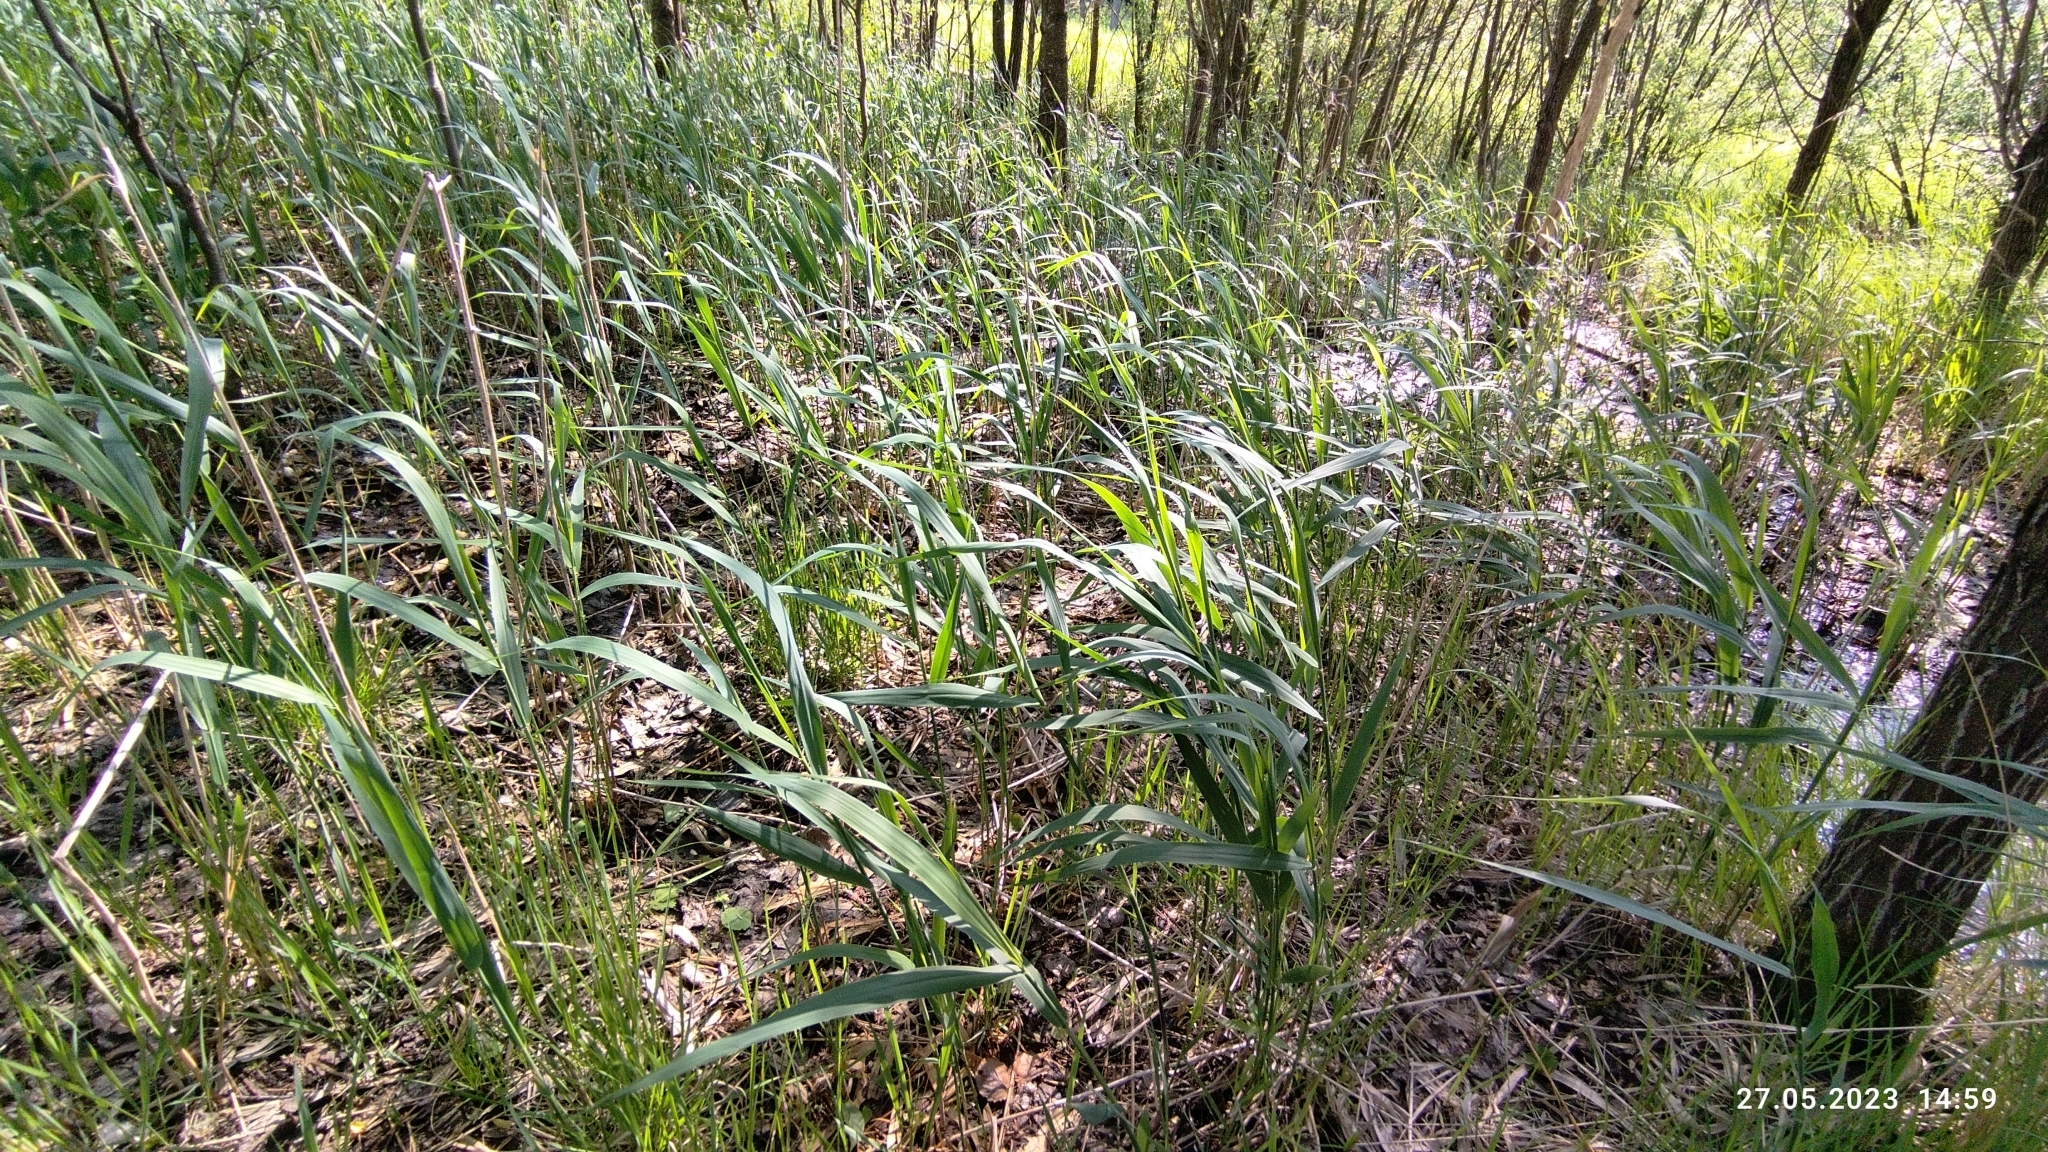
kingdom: Plantae
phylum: Tracheophyta
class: Liliopsida
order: Poales
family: Poaceae
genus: Phragmites
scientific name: Phragmites australis
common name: Common reed
